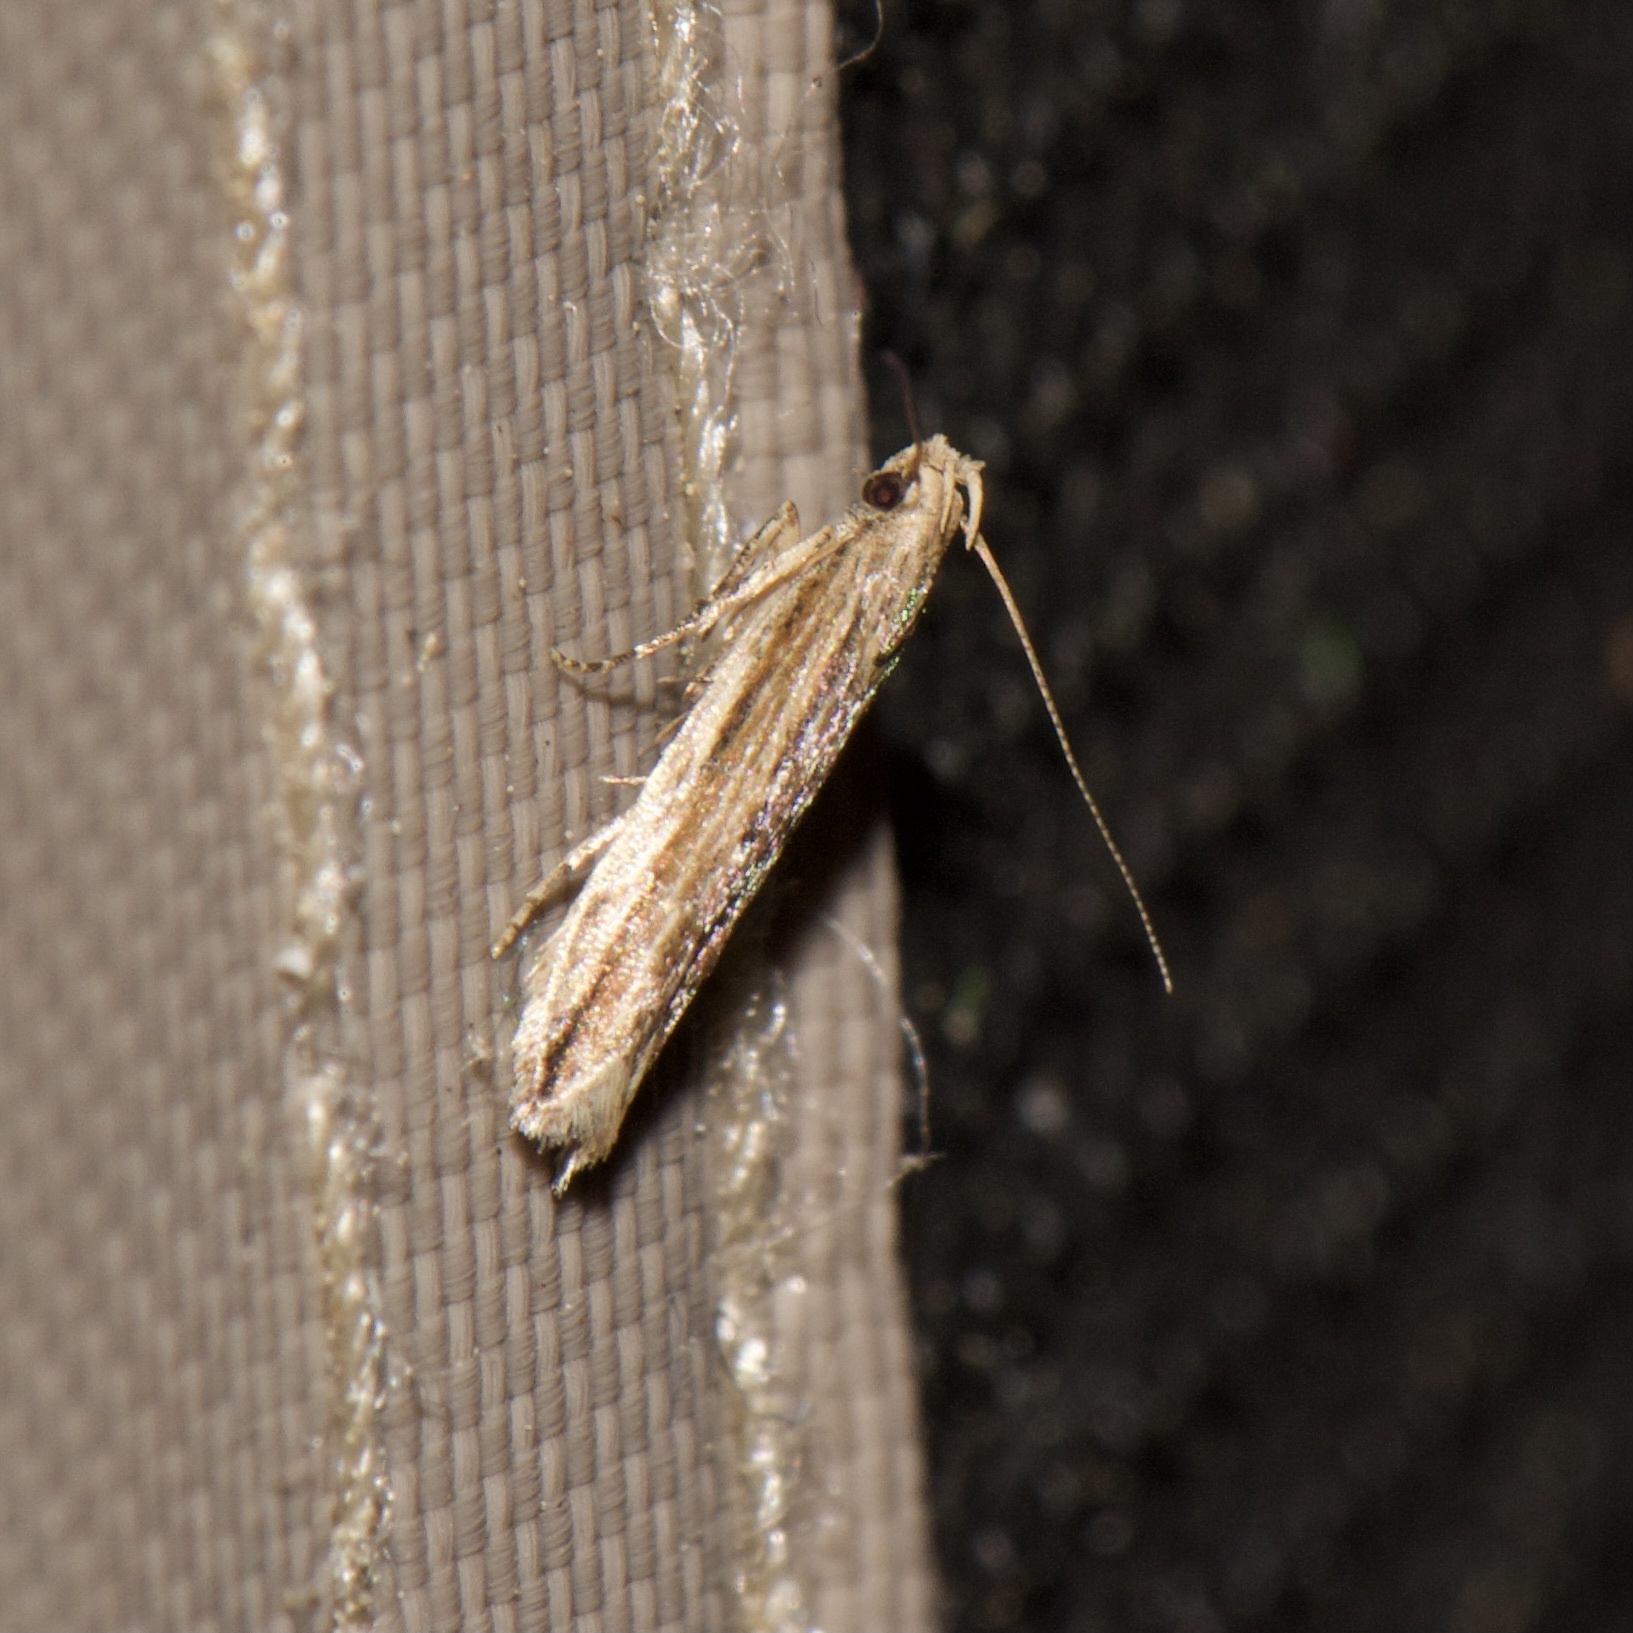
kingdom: Animalia
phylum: Arthropoda
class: Insecta
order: Lepidoptera
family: Gelechiidae
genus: Symmetrischema
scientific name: Symmetrischema striatella
